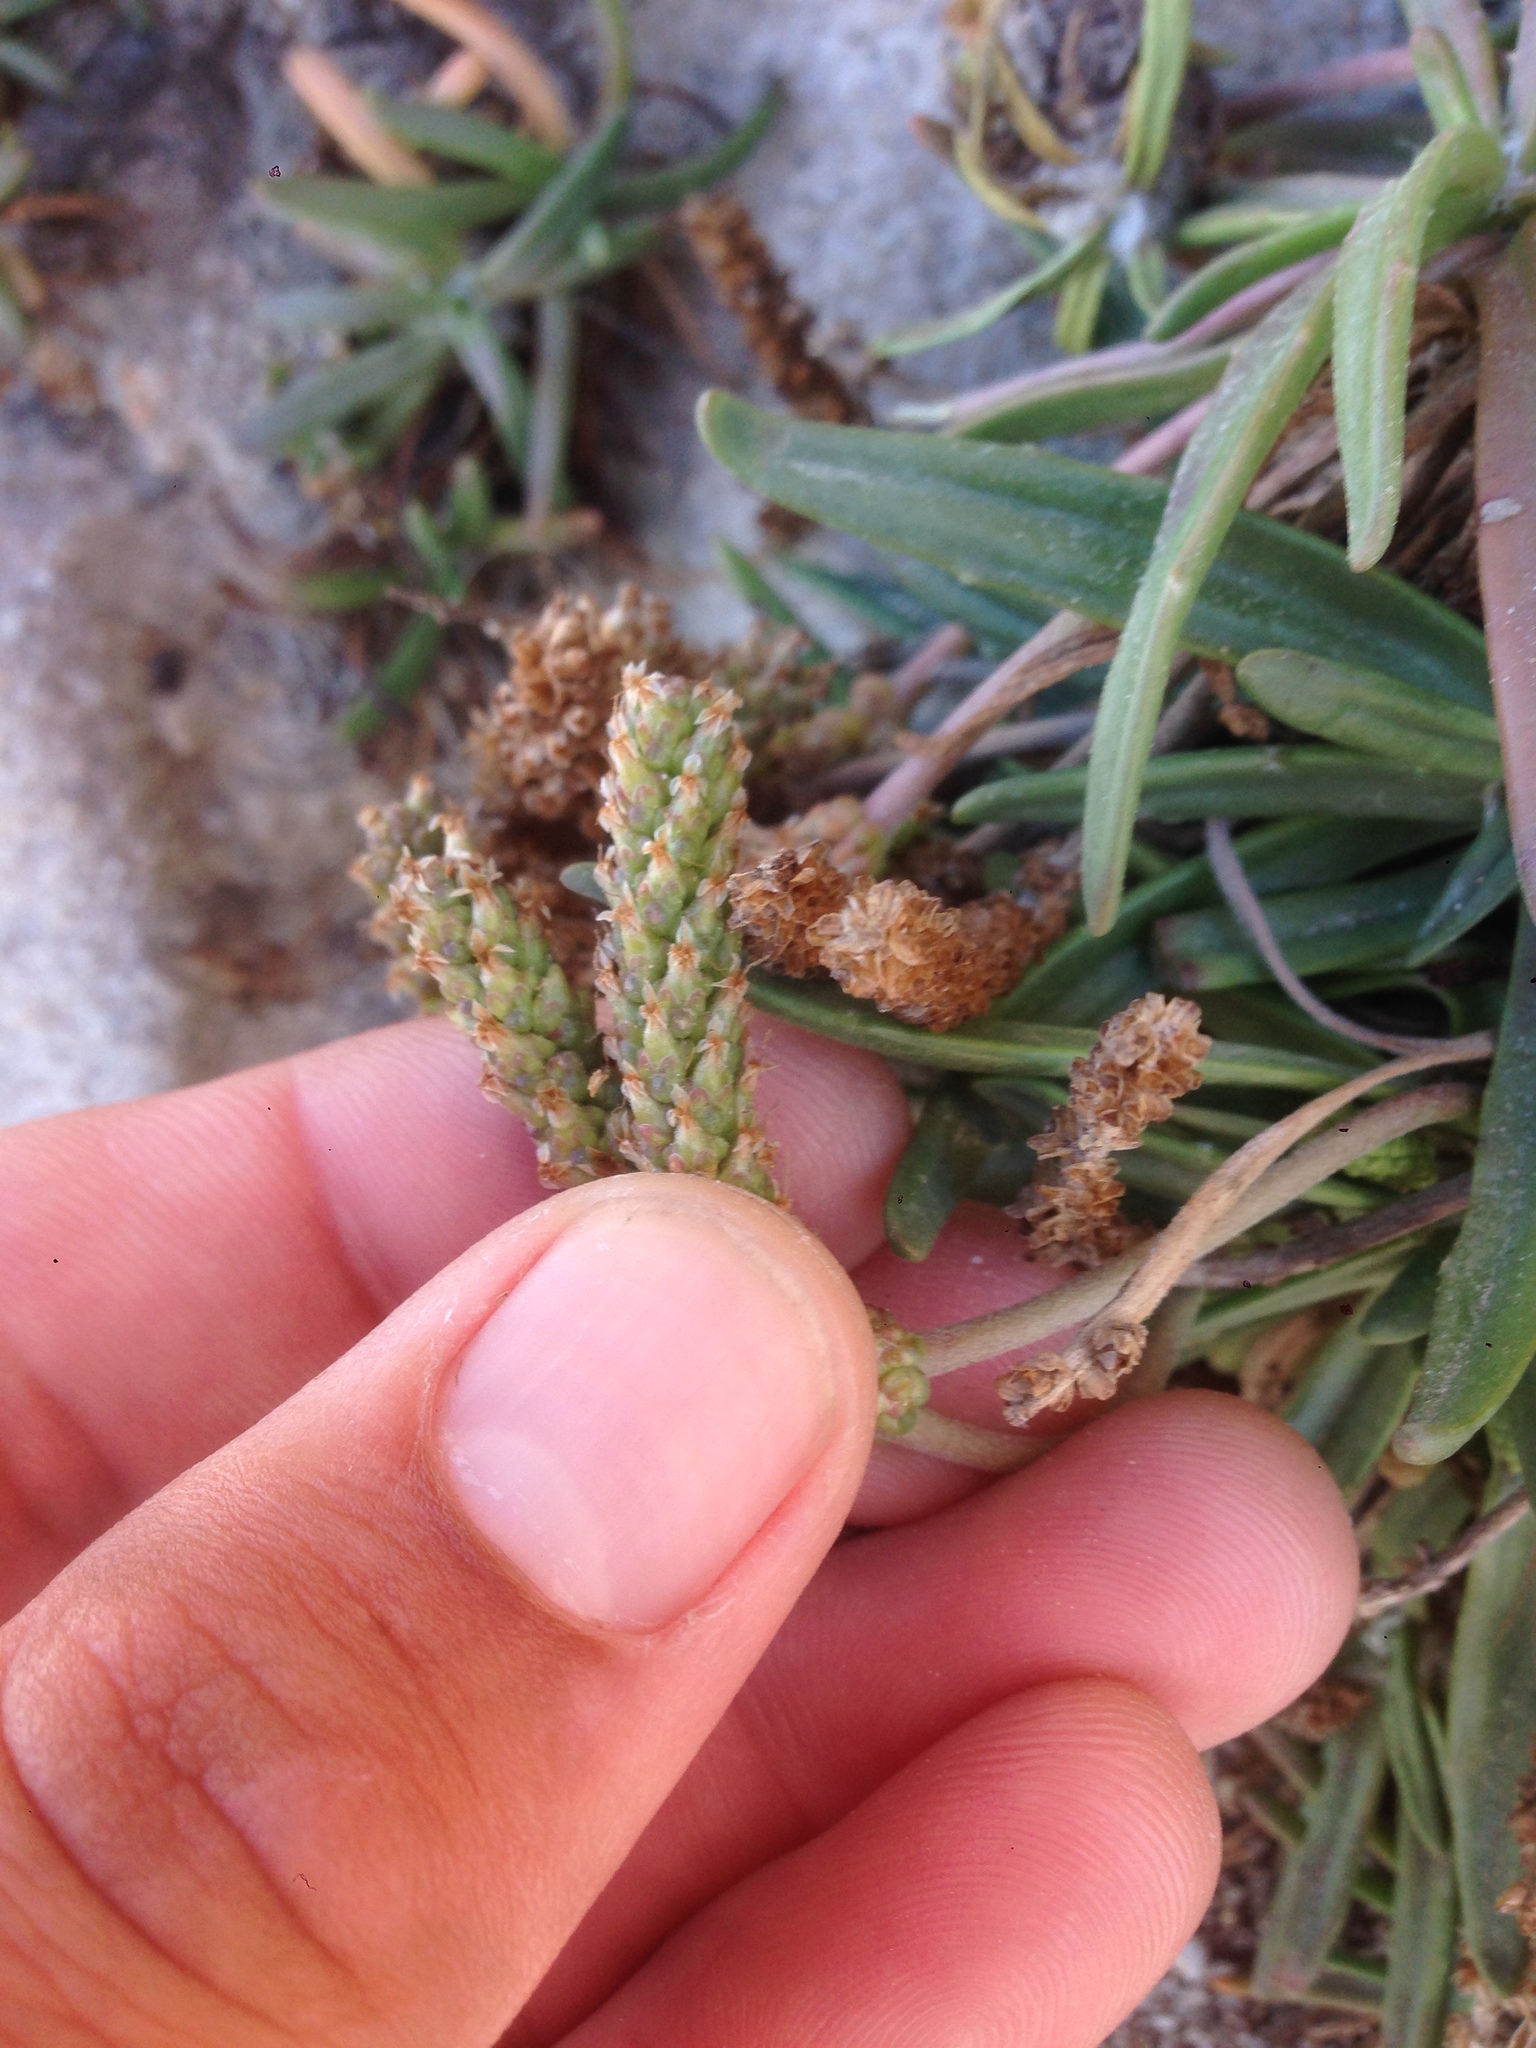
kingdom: Plantae
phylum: Tracheophyta
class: Magnoliopsida
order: Lamiales
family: Plantaginaceae
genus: Plantago
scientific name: Plantago maritima
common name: Sea plantain
